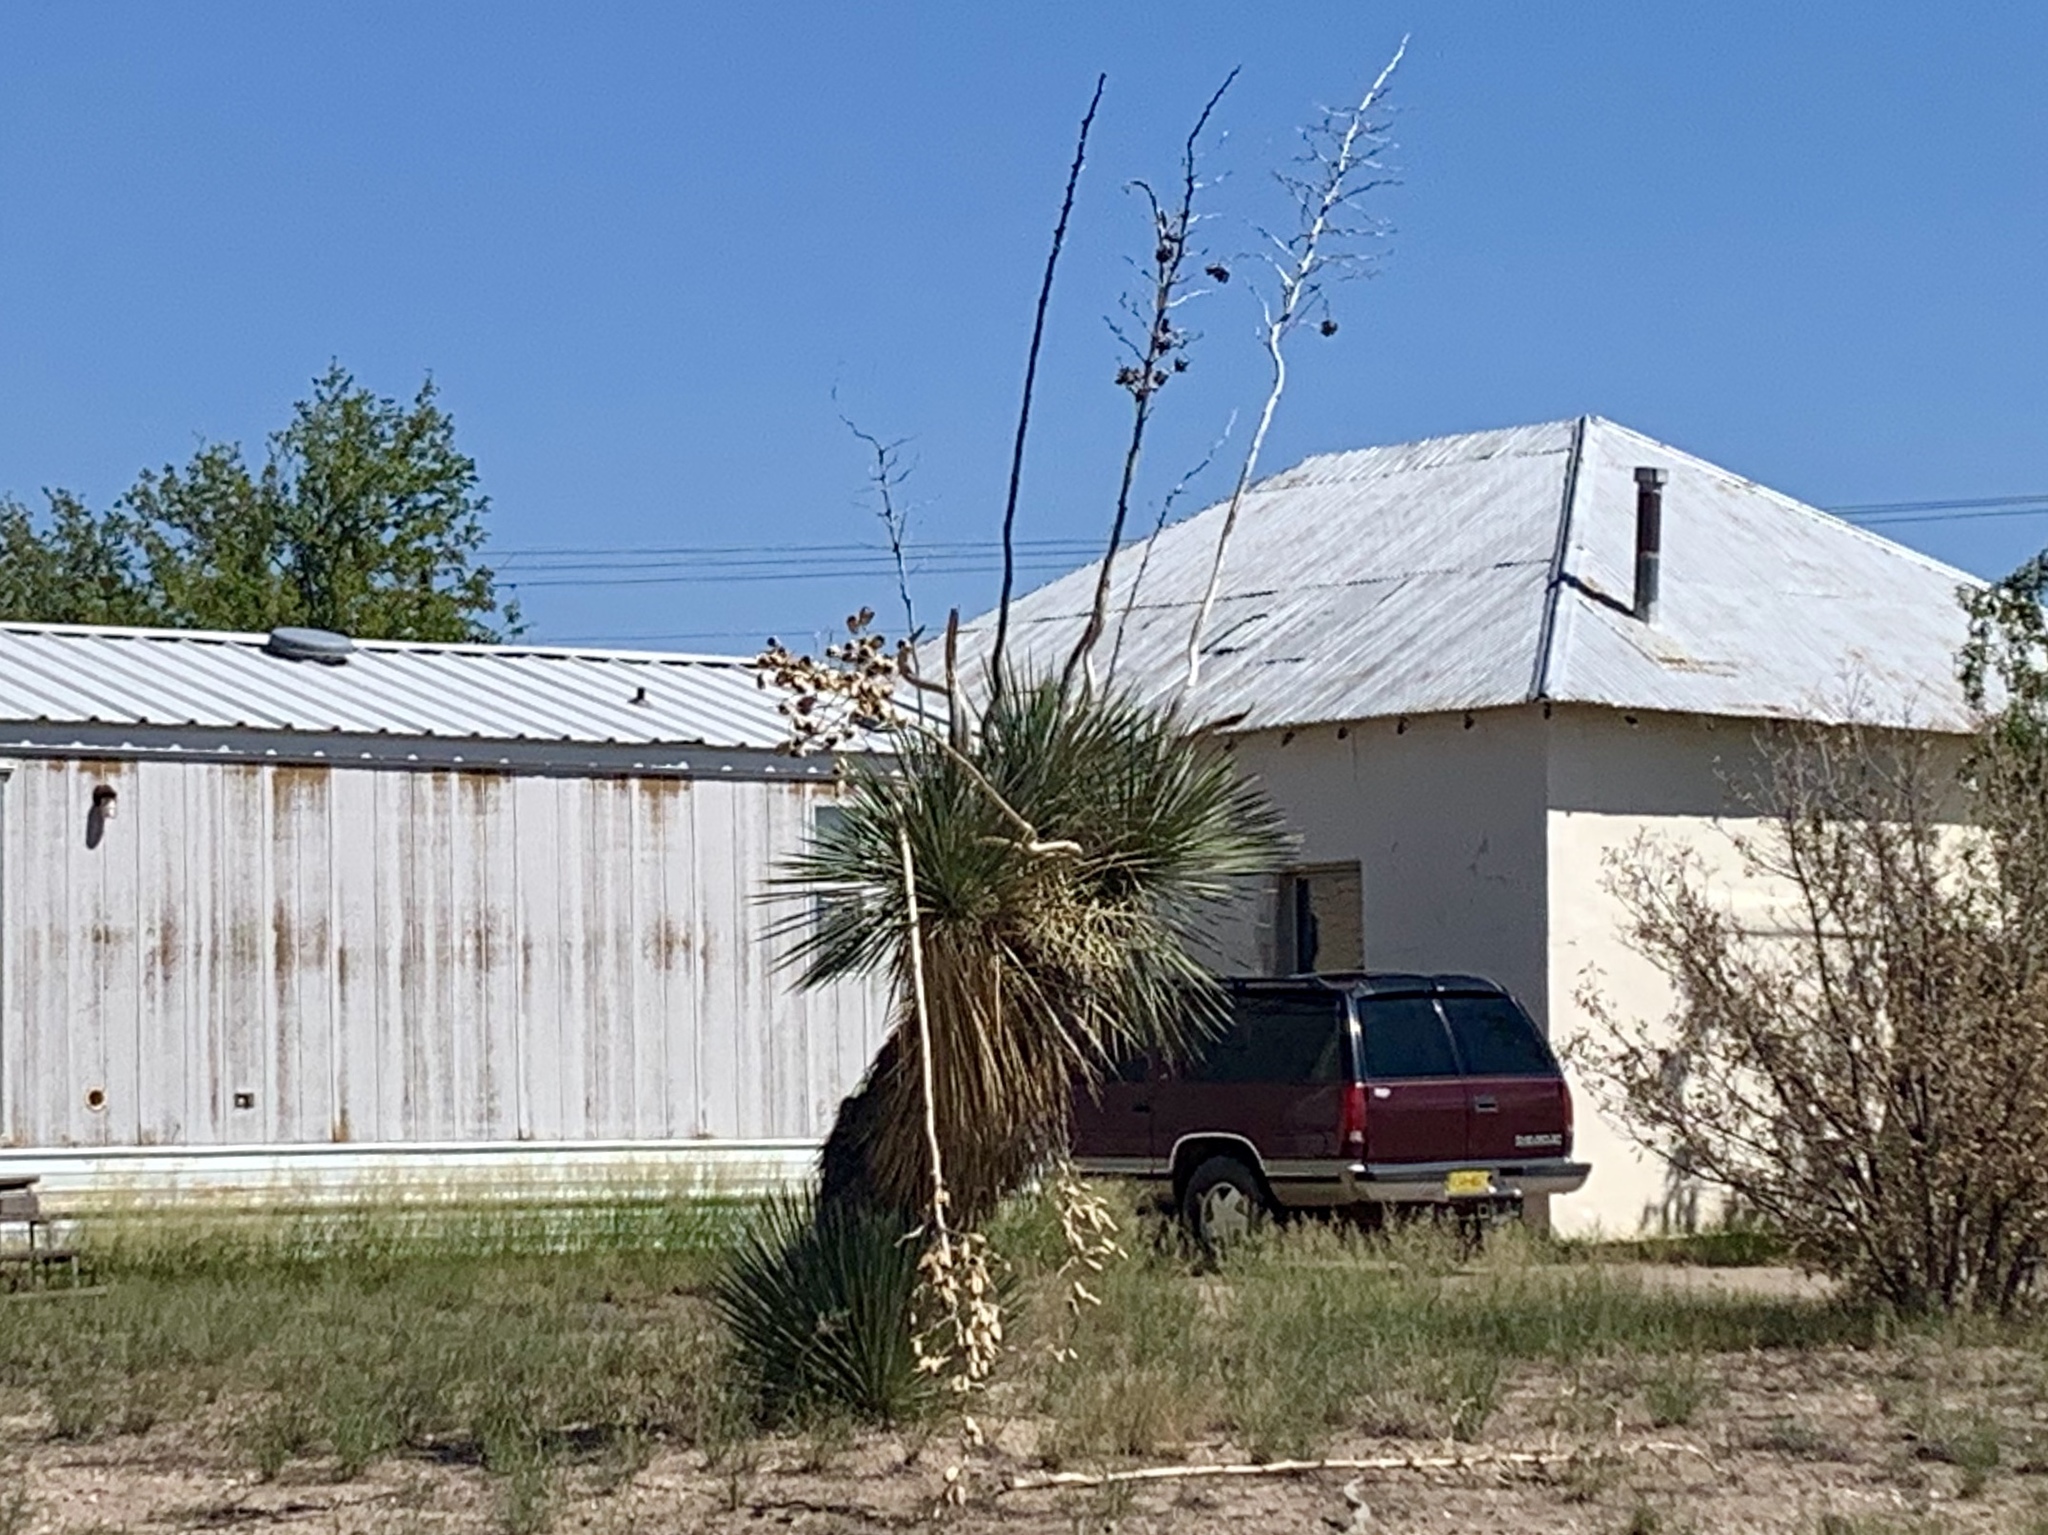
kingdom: Plantae
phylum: Tracheophyta
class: Liliopsida
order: Asparagales
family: Asparagaceae
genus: Yucca
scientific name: Yucca elata
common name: Palmella
